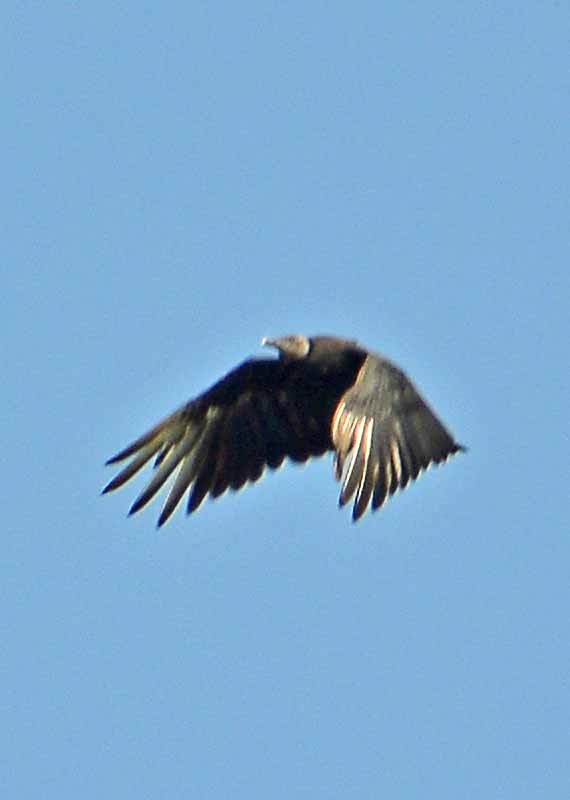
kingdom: Animalia
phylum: Chordata
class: Aves
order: Accipitriformes
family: Cathartidae
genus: Coragyps
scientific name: Coragyps atratus
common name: Black vulture
